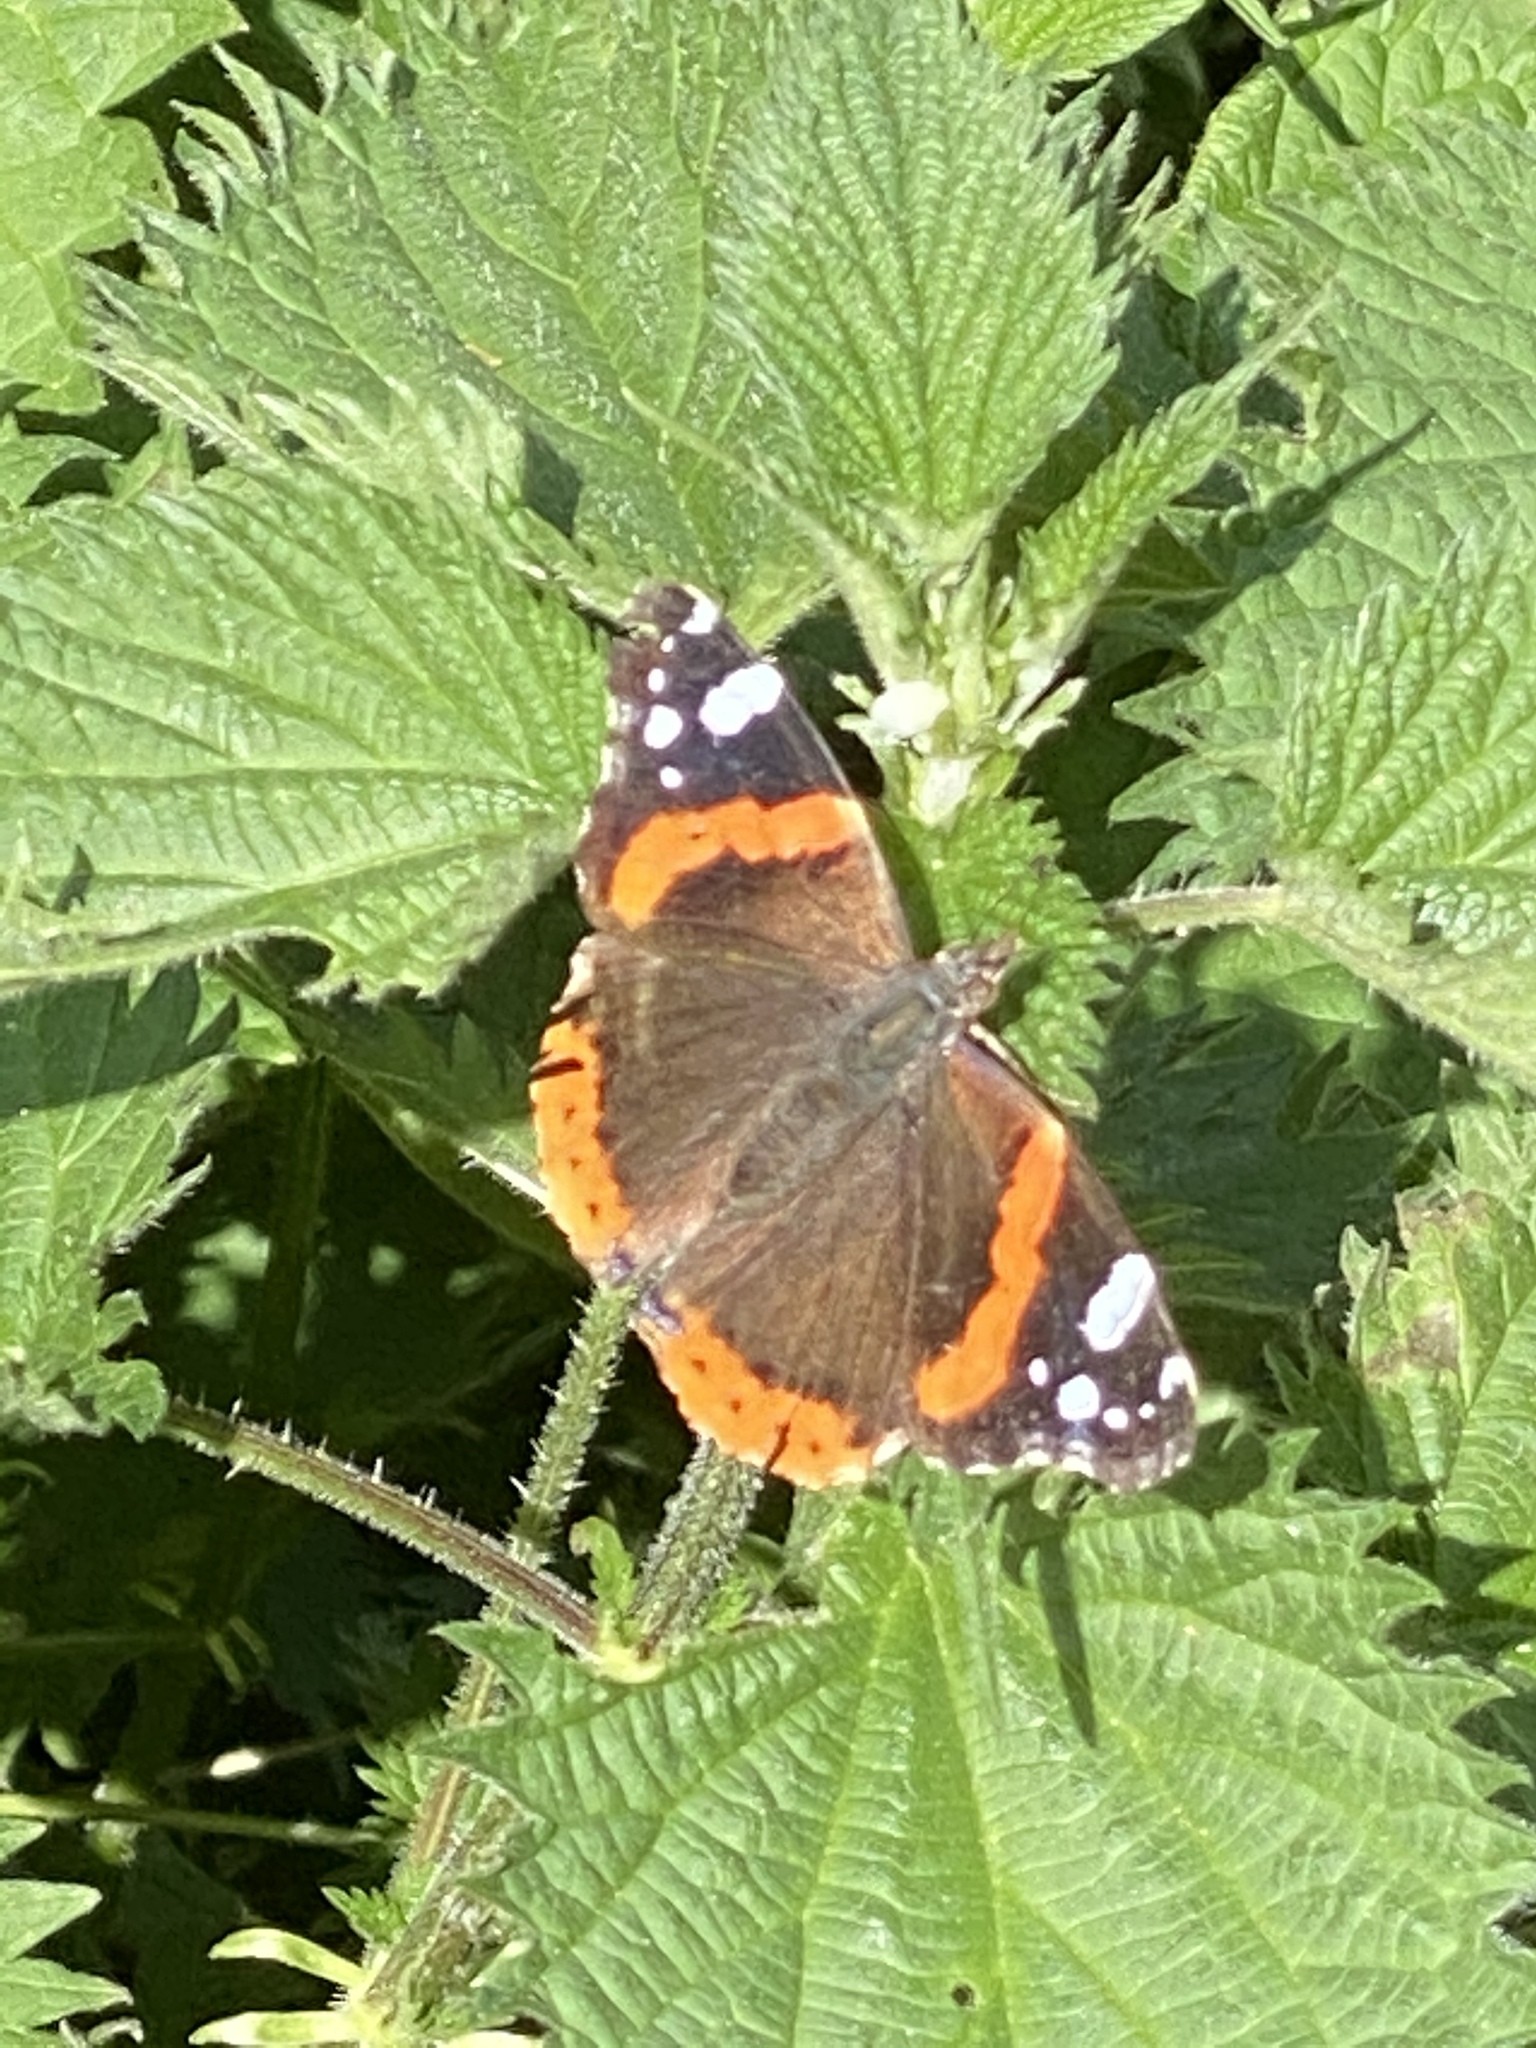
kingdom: Animalia
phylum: Arthropoda
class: Insecta
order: Lepidoptera
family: Nymphalidae
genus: Vanessa
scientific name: Vanessa atalanta
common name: Red admiral
